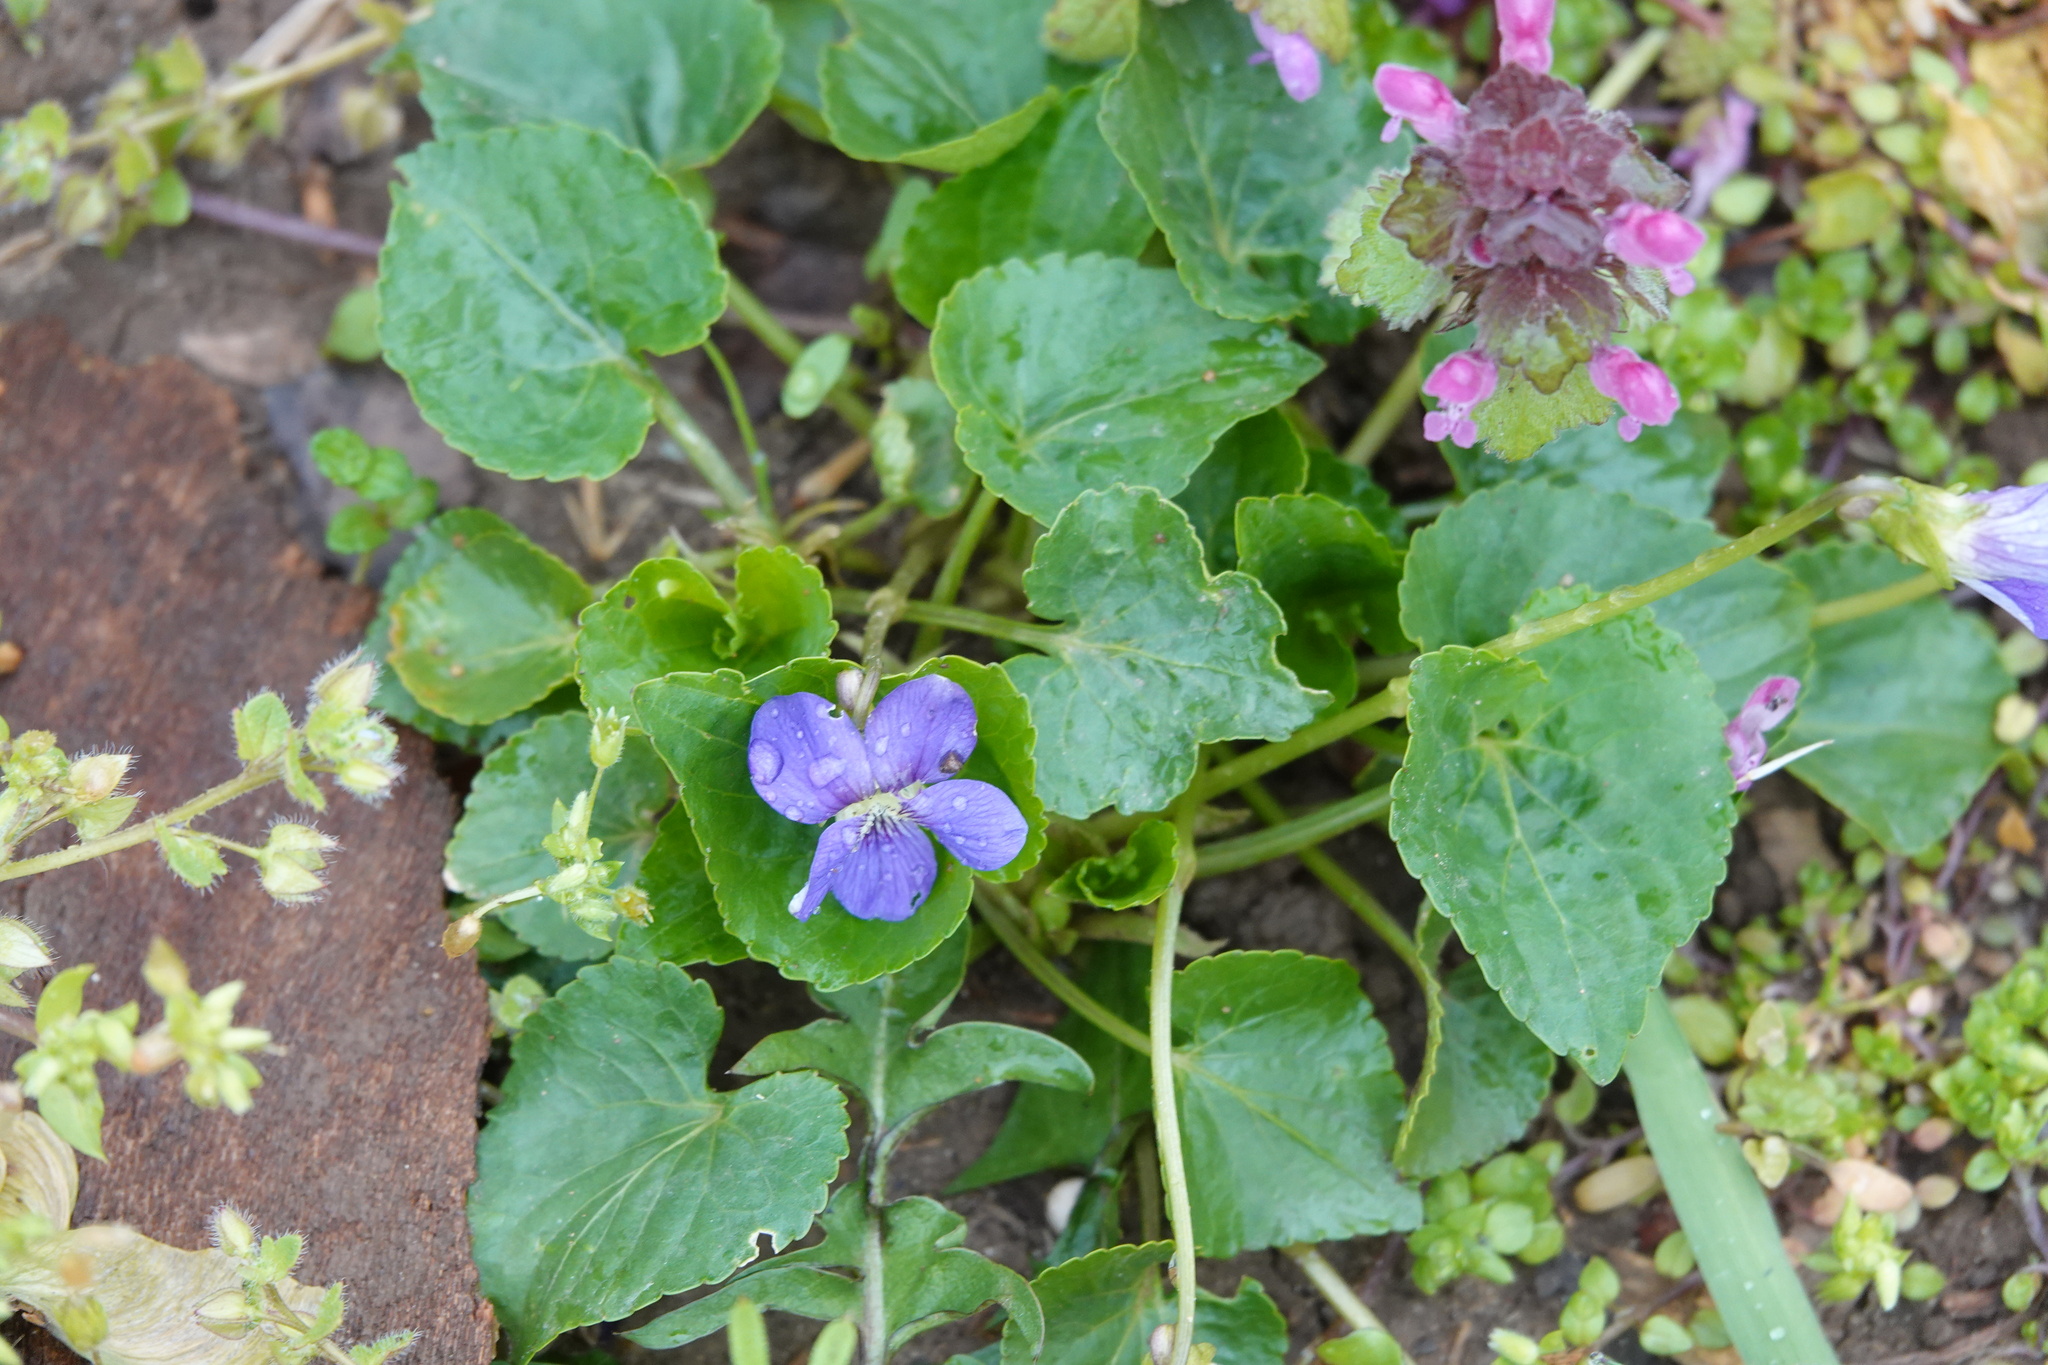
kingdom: Plantae
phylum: Tracheophyta
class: Magnoliopsida
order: Malpighiales
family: Violaceae
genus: Viola
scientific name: Viola sororia
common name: Dooryard violet
